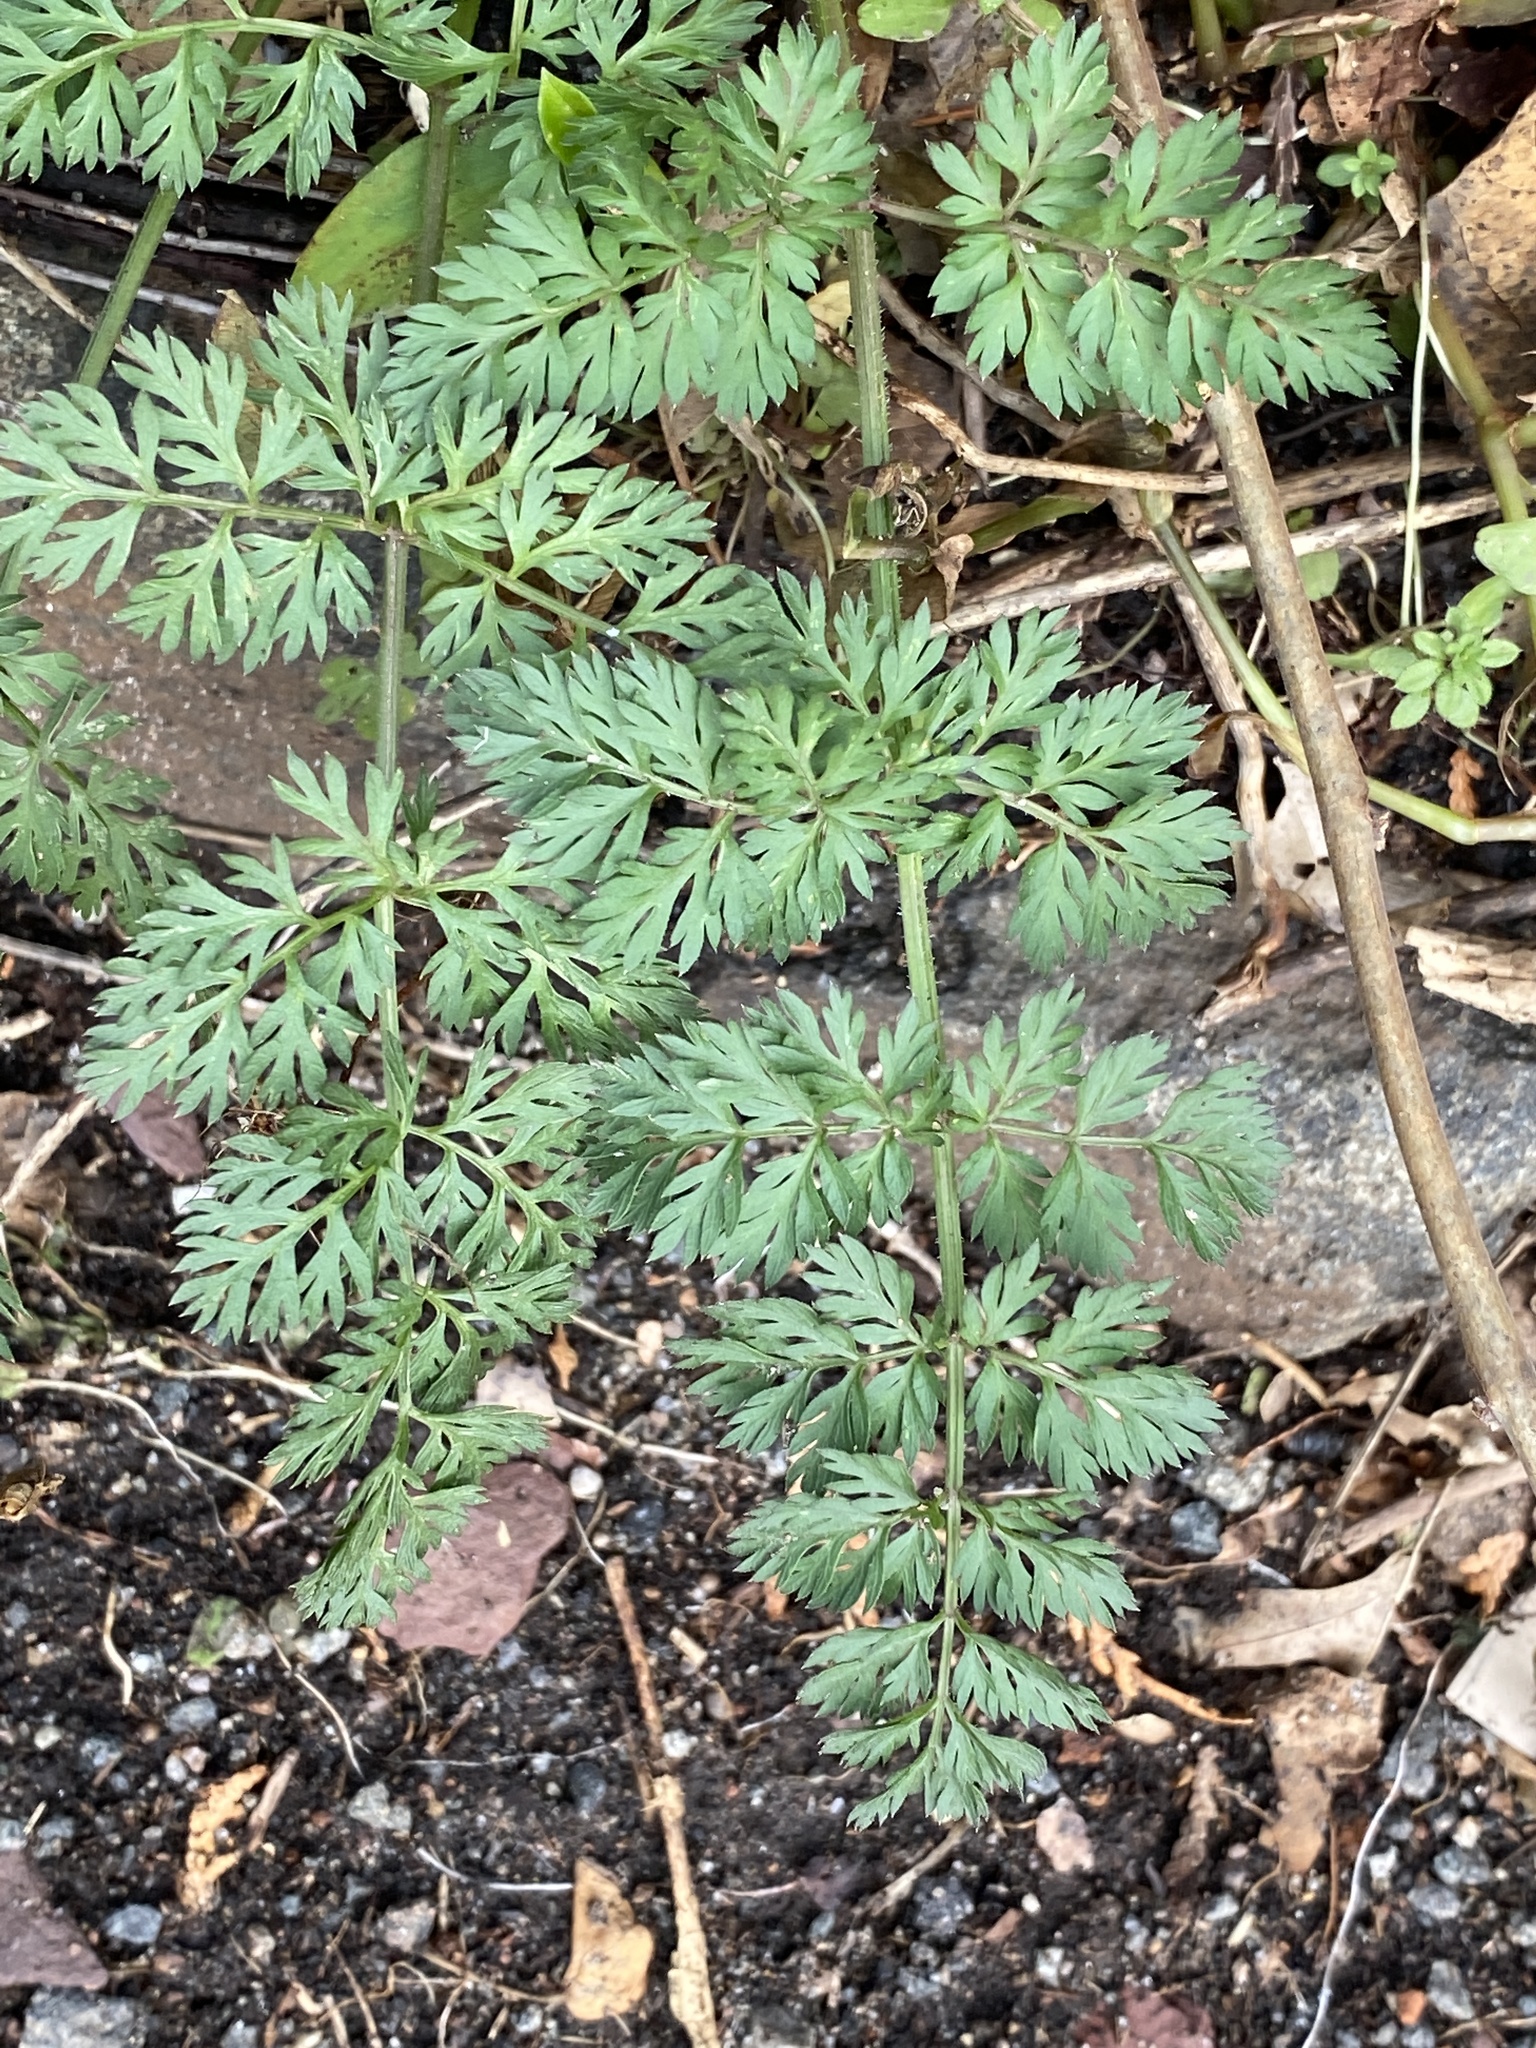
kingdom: Plantae
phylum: Tracheophyta
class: Magnoliopsida
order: Apiales
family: Apiaceae
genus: Daucus
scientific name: Daucus carota
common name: Wild carrot
